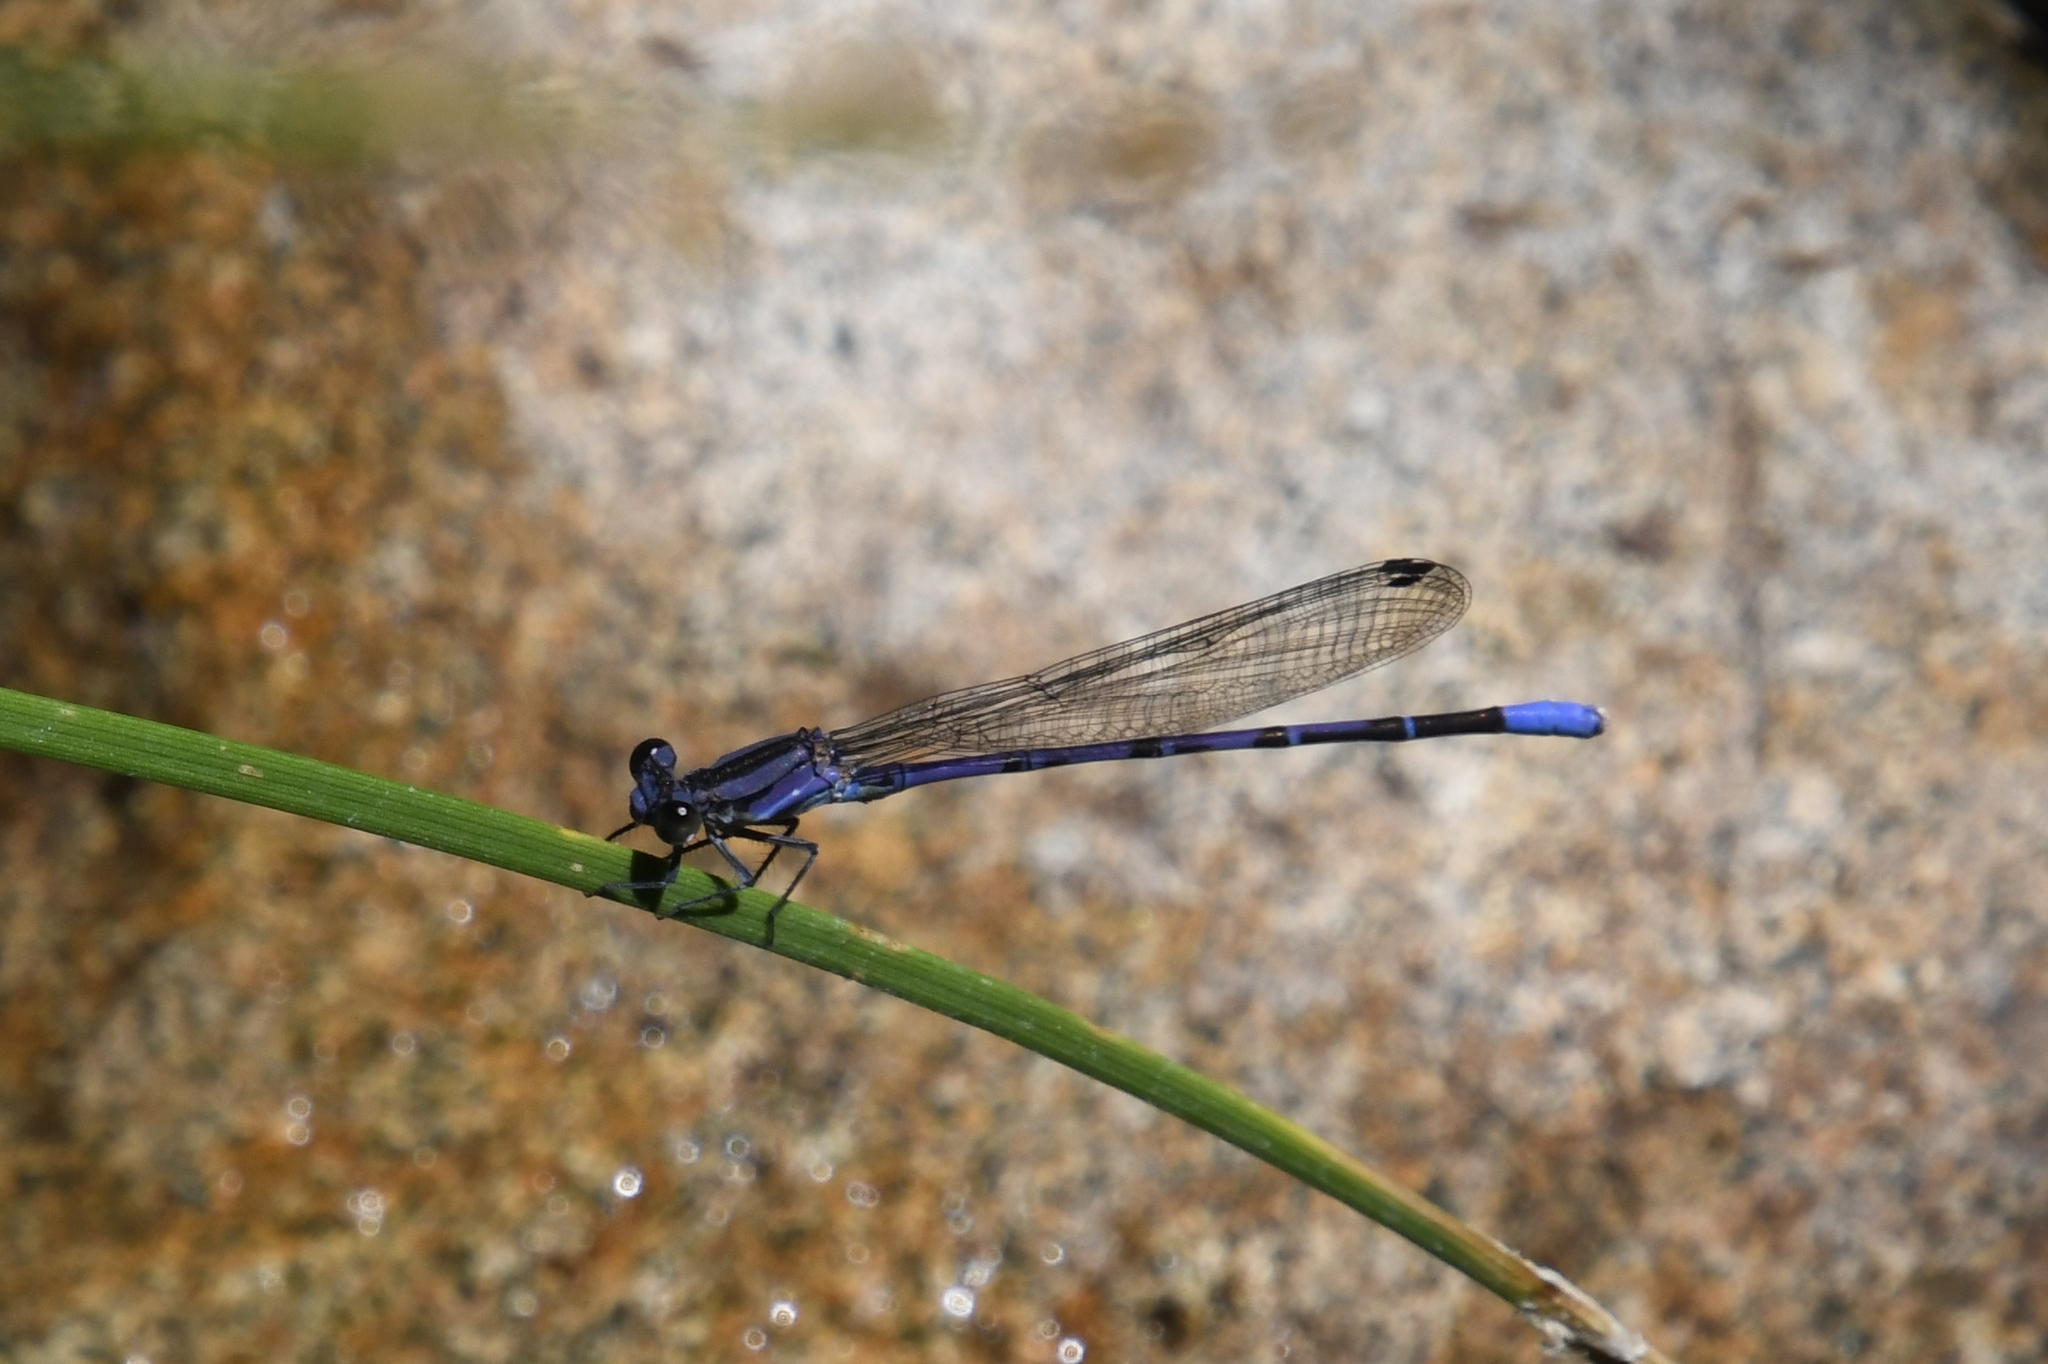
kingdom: Animalia
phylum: Arthropoda
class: Insecta
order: Odonata
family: Coenagrionidae
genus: Argia
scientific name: Argia funebris
